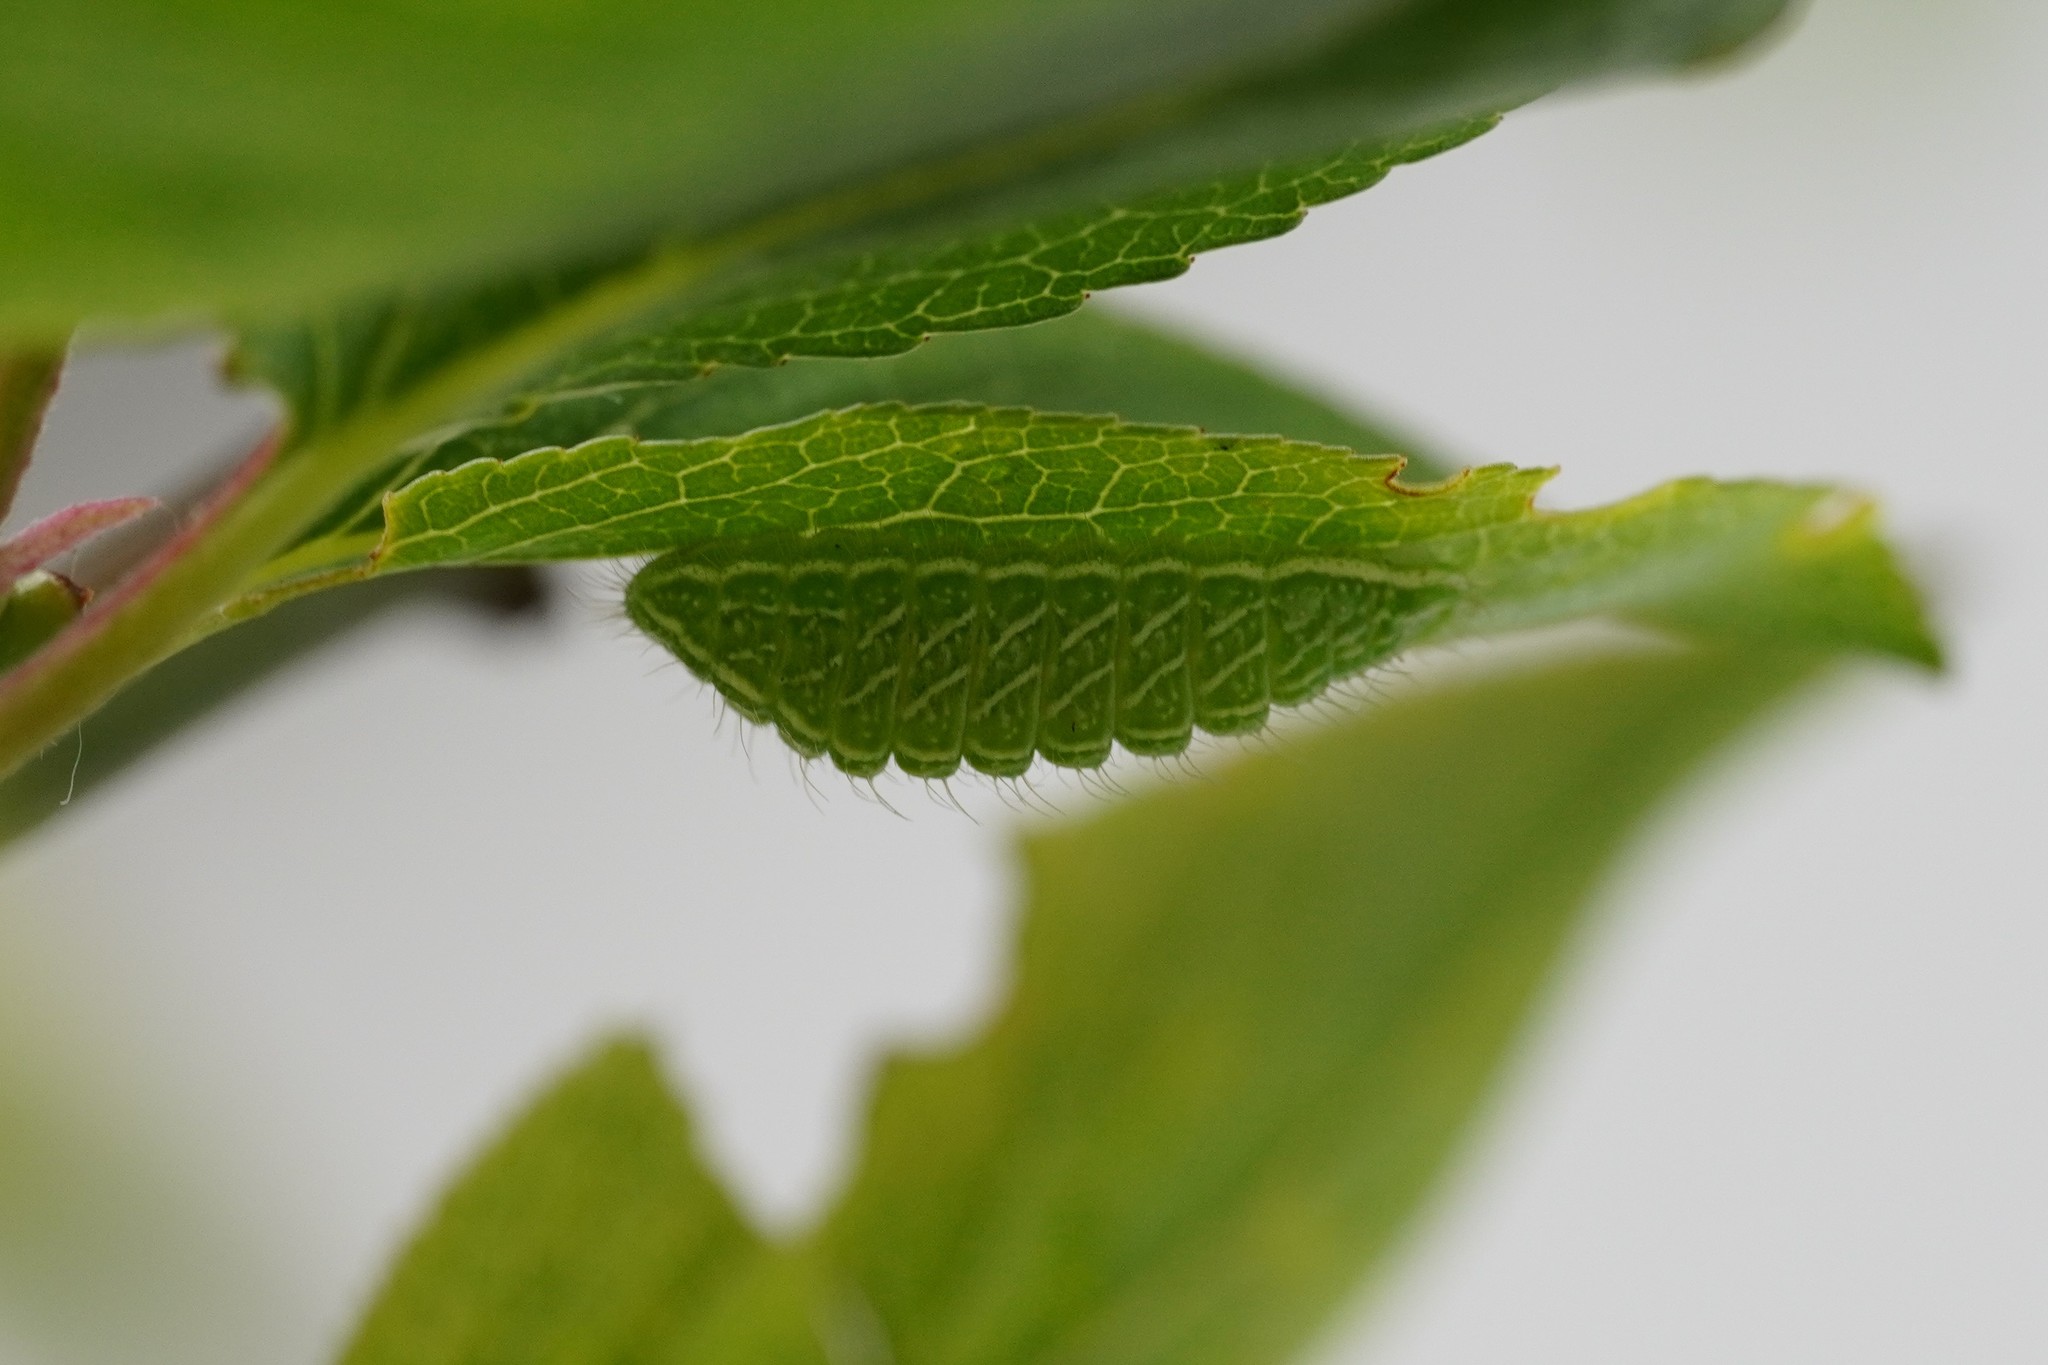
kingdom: Animalia
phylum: Arthropoda
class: Insecta
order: Lepidoptera
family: Lycaenidae
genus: Thecla
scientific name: Thecla betulae
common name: Brown hairstreak
